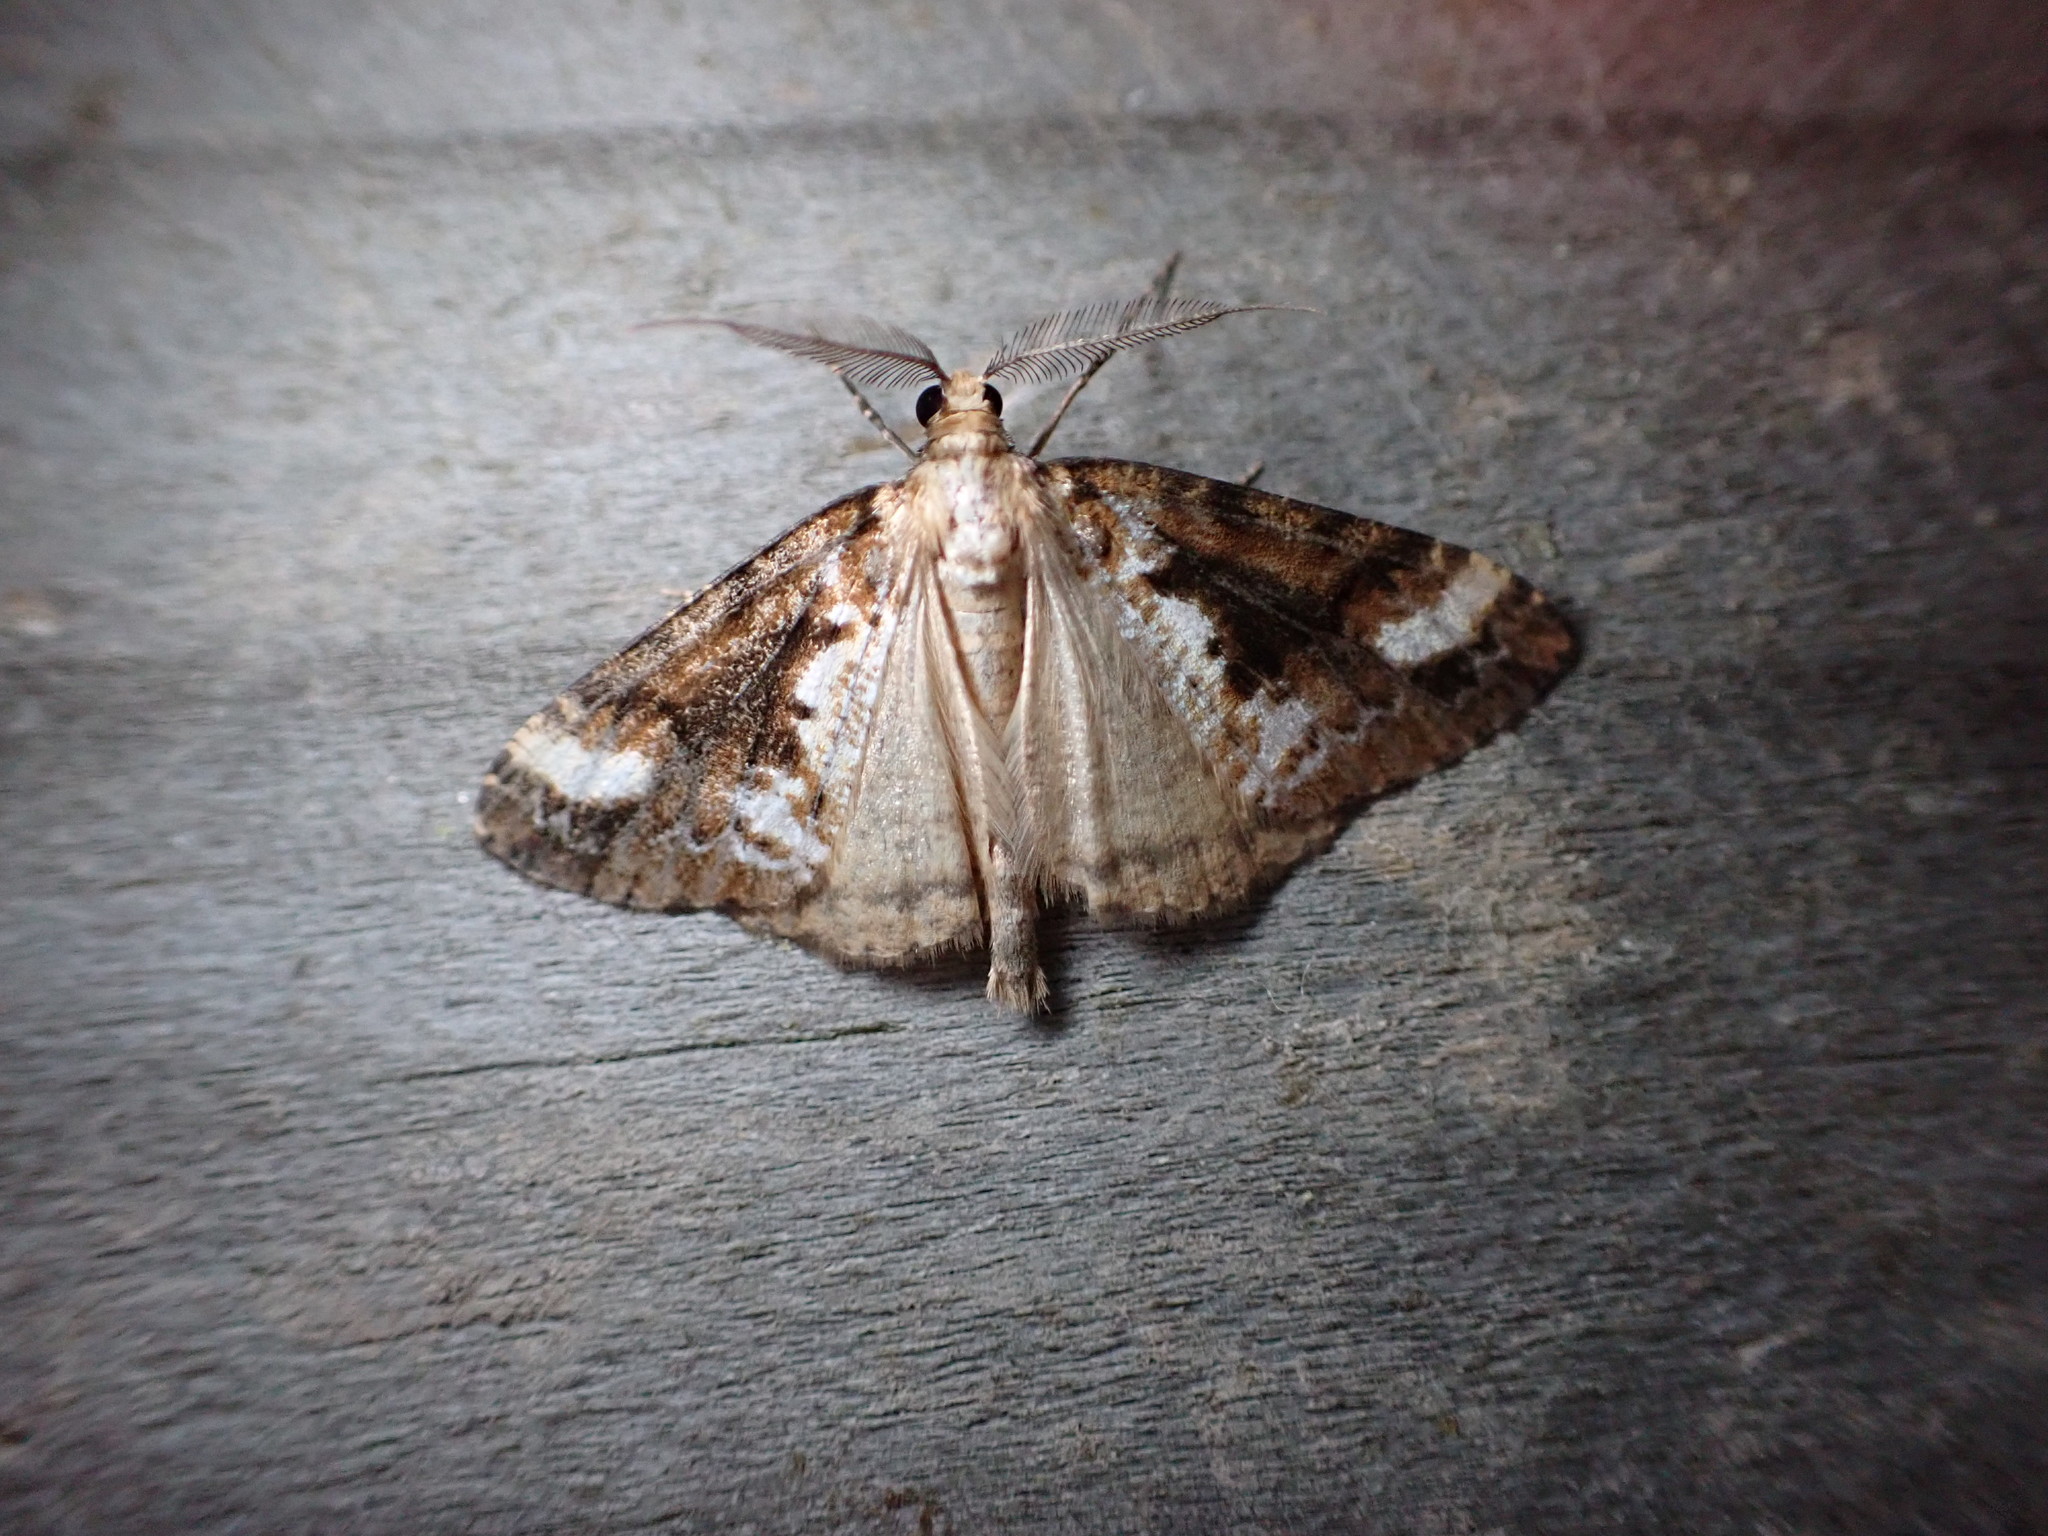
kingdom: Animalia
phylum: Arthropoda
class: Insecta
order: Lepidoptera
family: Geometridae
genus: Pseudocoremia
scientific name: Pseudocoremia leucelaea
